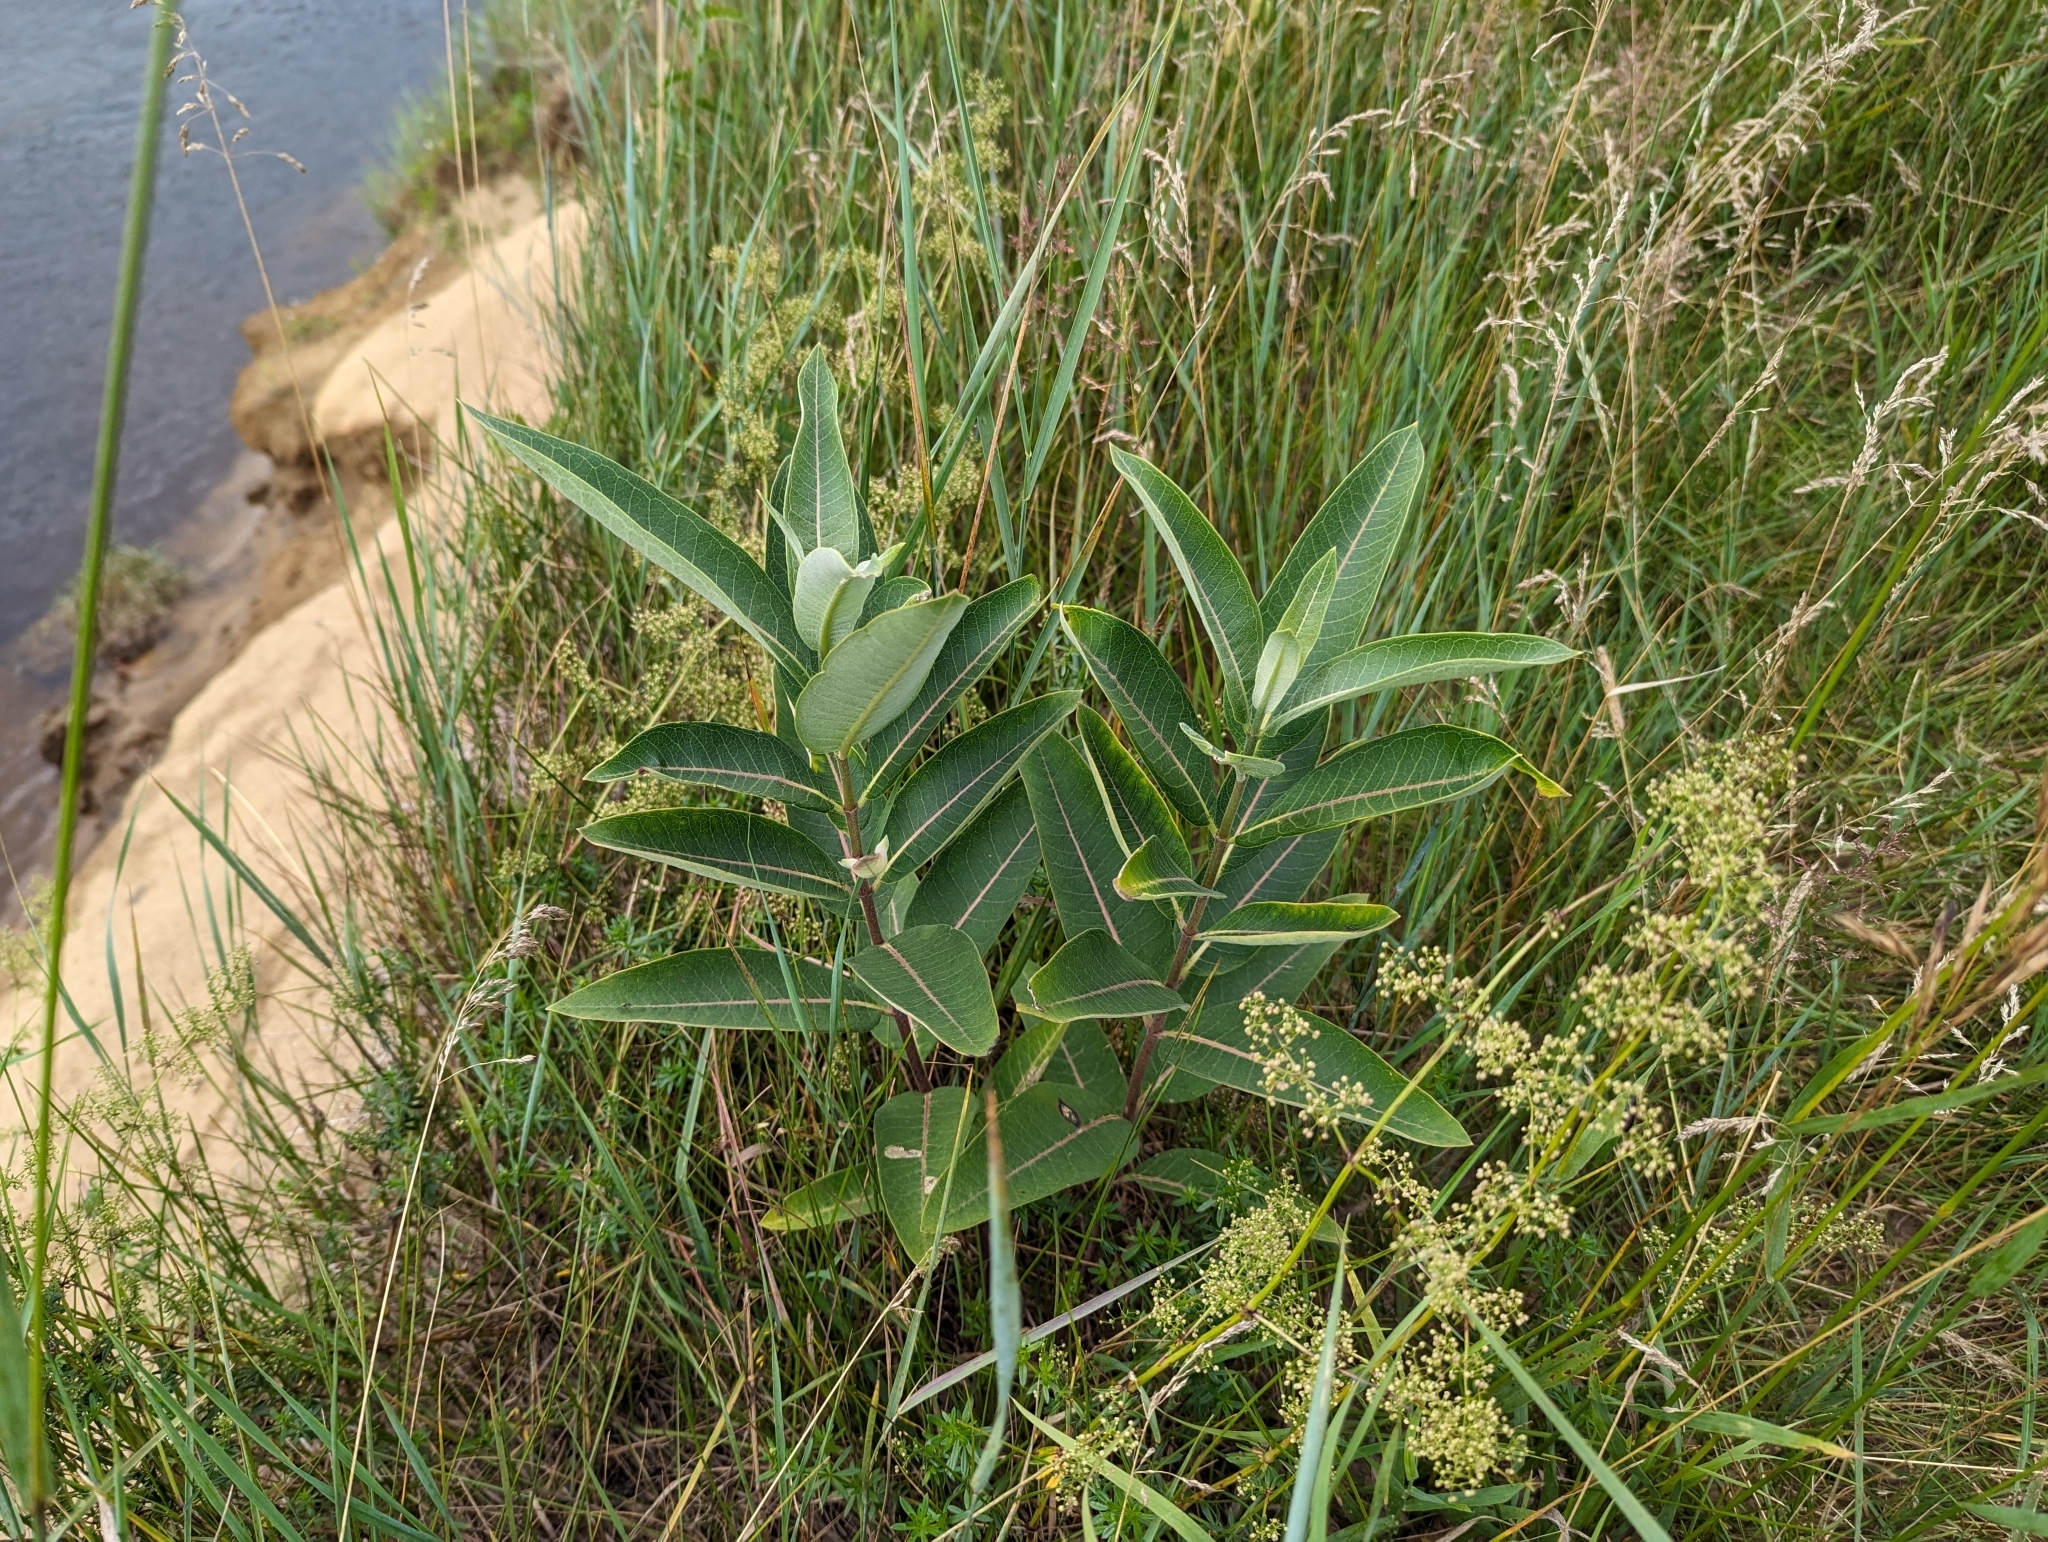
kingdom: Plantae
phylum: Tracheophyta
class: Magnoliopsida
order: Gentianales
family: Apocynaceae
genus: Asclepias
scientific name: Asclepias syriaca
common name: Common milkweed
